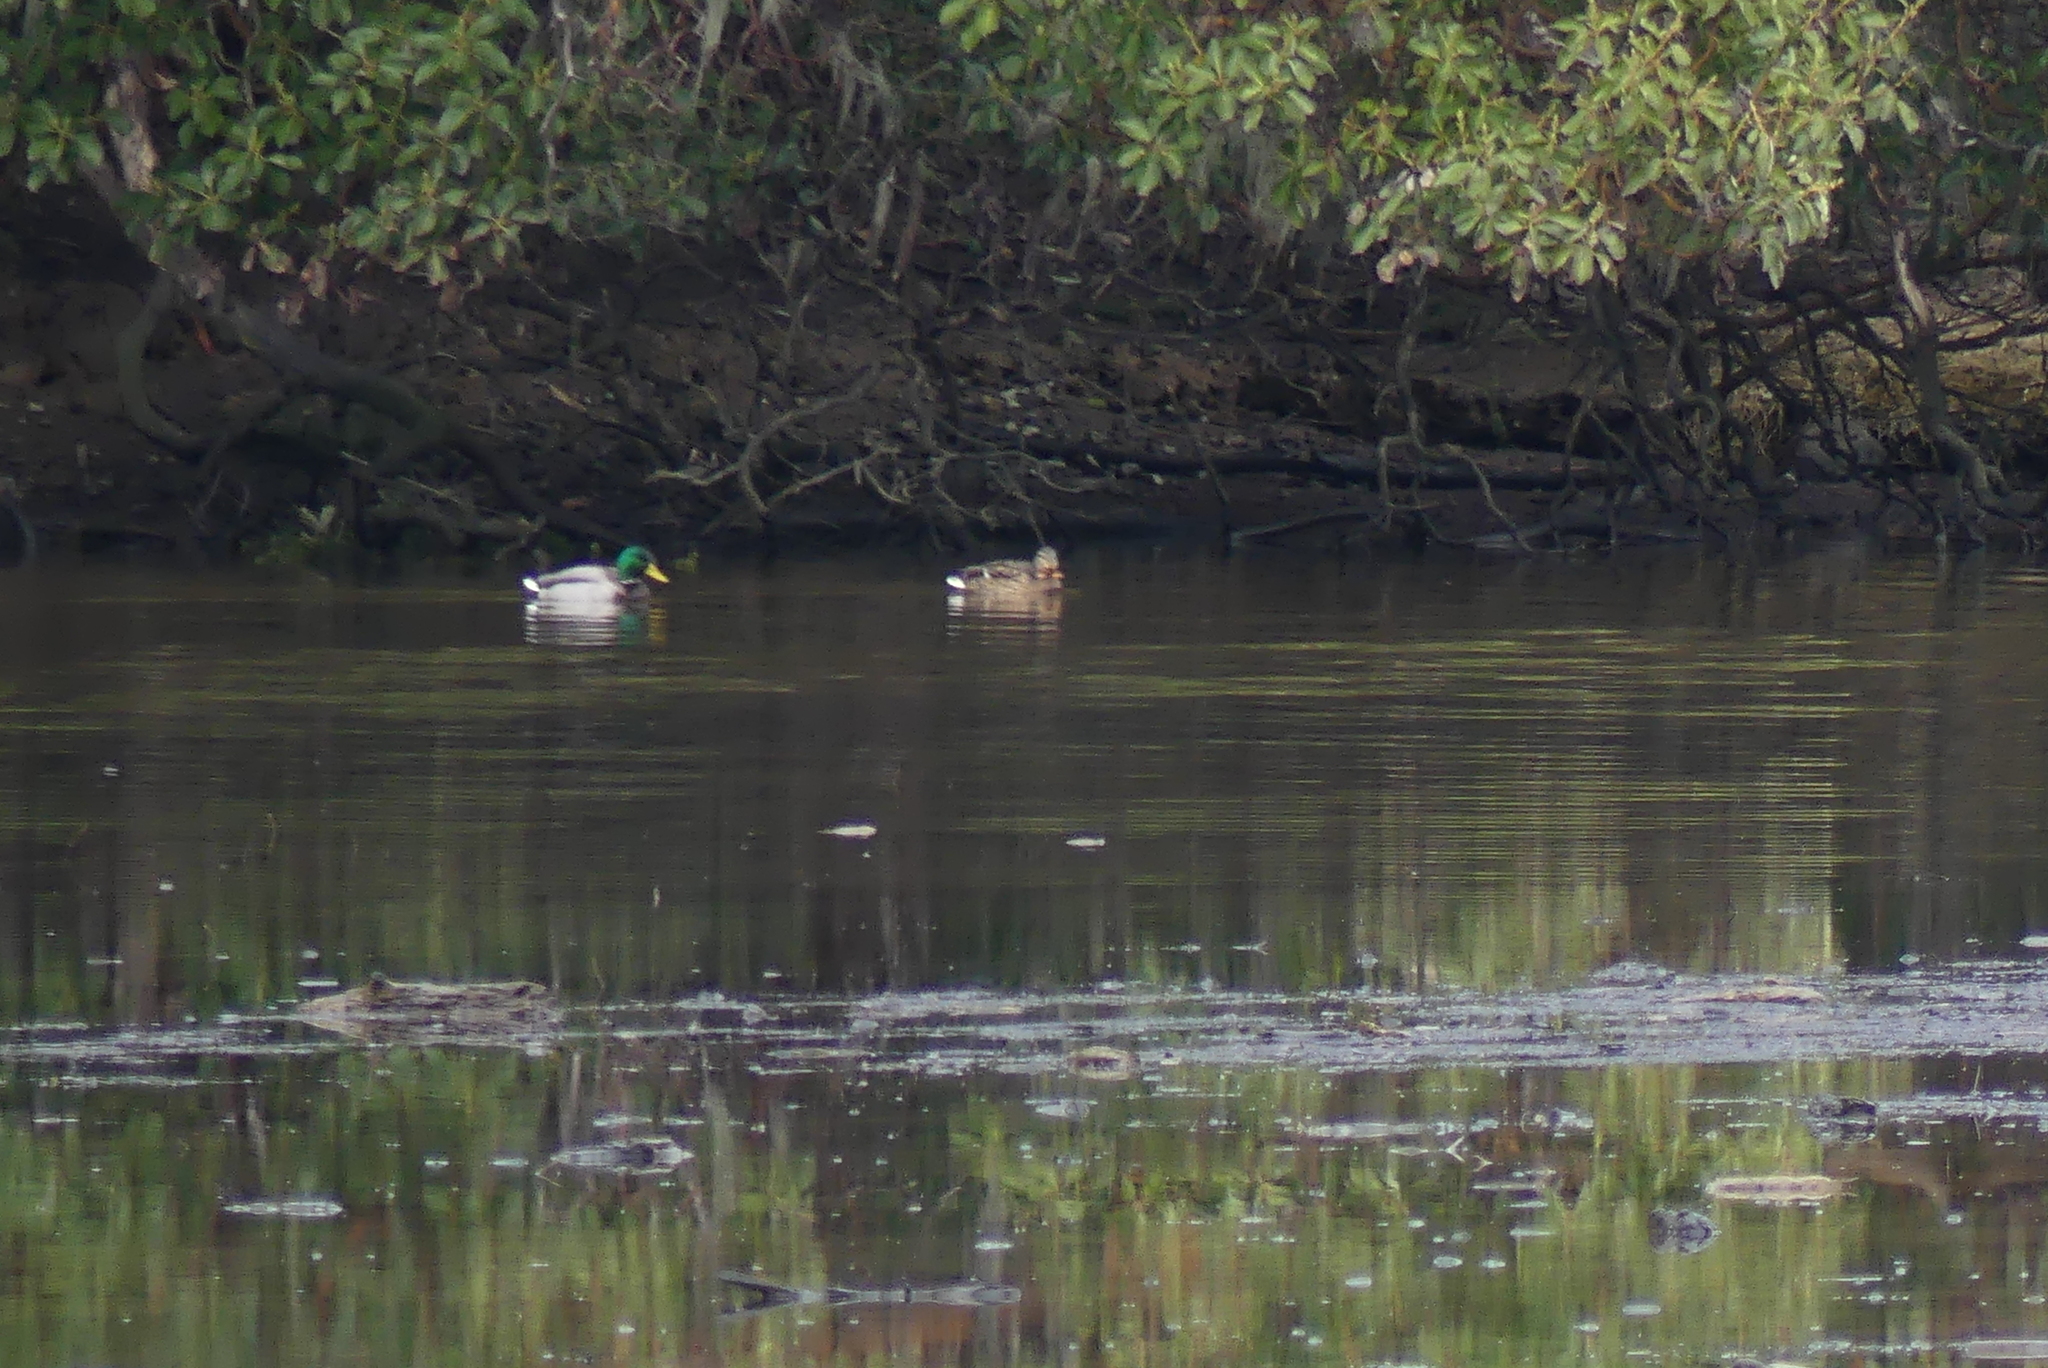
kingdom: Animalia
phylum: Chordata
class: Aves
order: Anseriformes
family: Anatidae
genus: Anas
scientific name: Anas platyrhynchos
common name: Mallard
